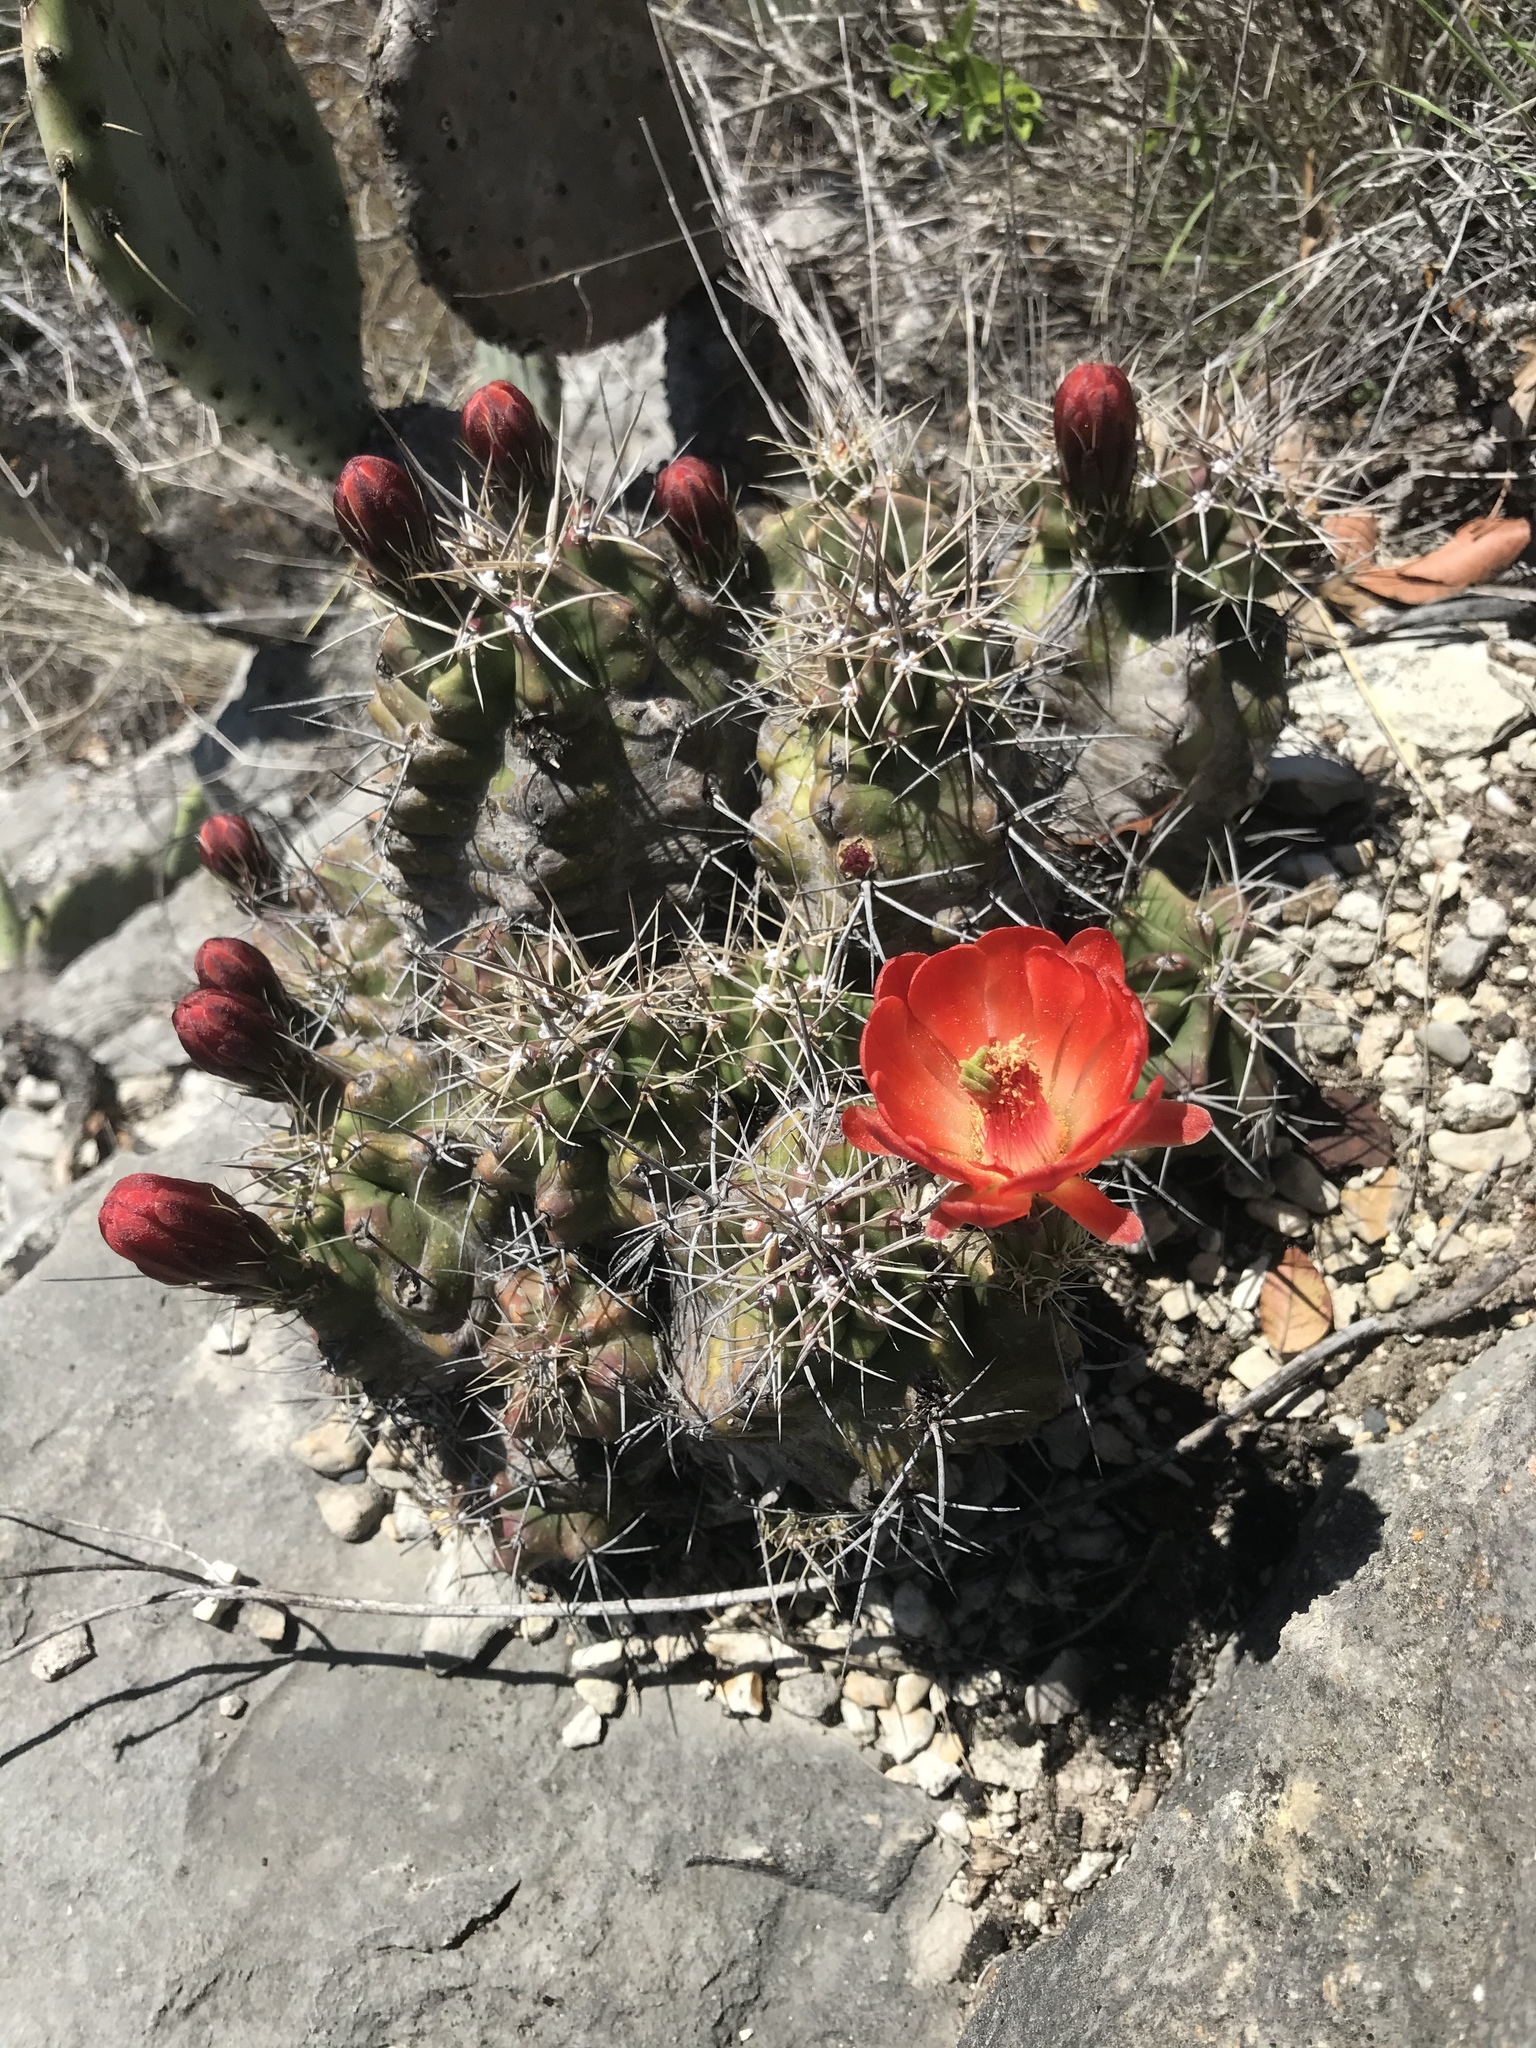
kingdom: Plantae
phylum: Tracheophyta
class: Magnoliopsida
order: Caryophyllales
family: Cactaceae
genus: Echinocereus
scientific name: Echinocereus coccineus
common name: Scarlet hedgehog cactus
